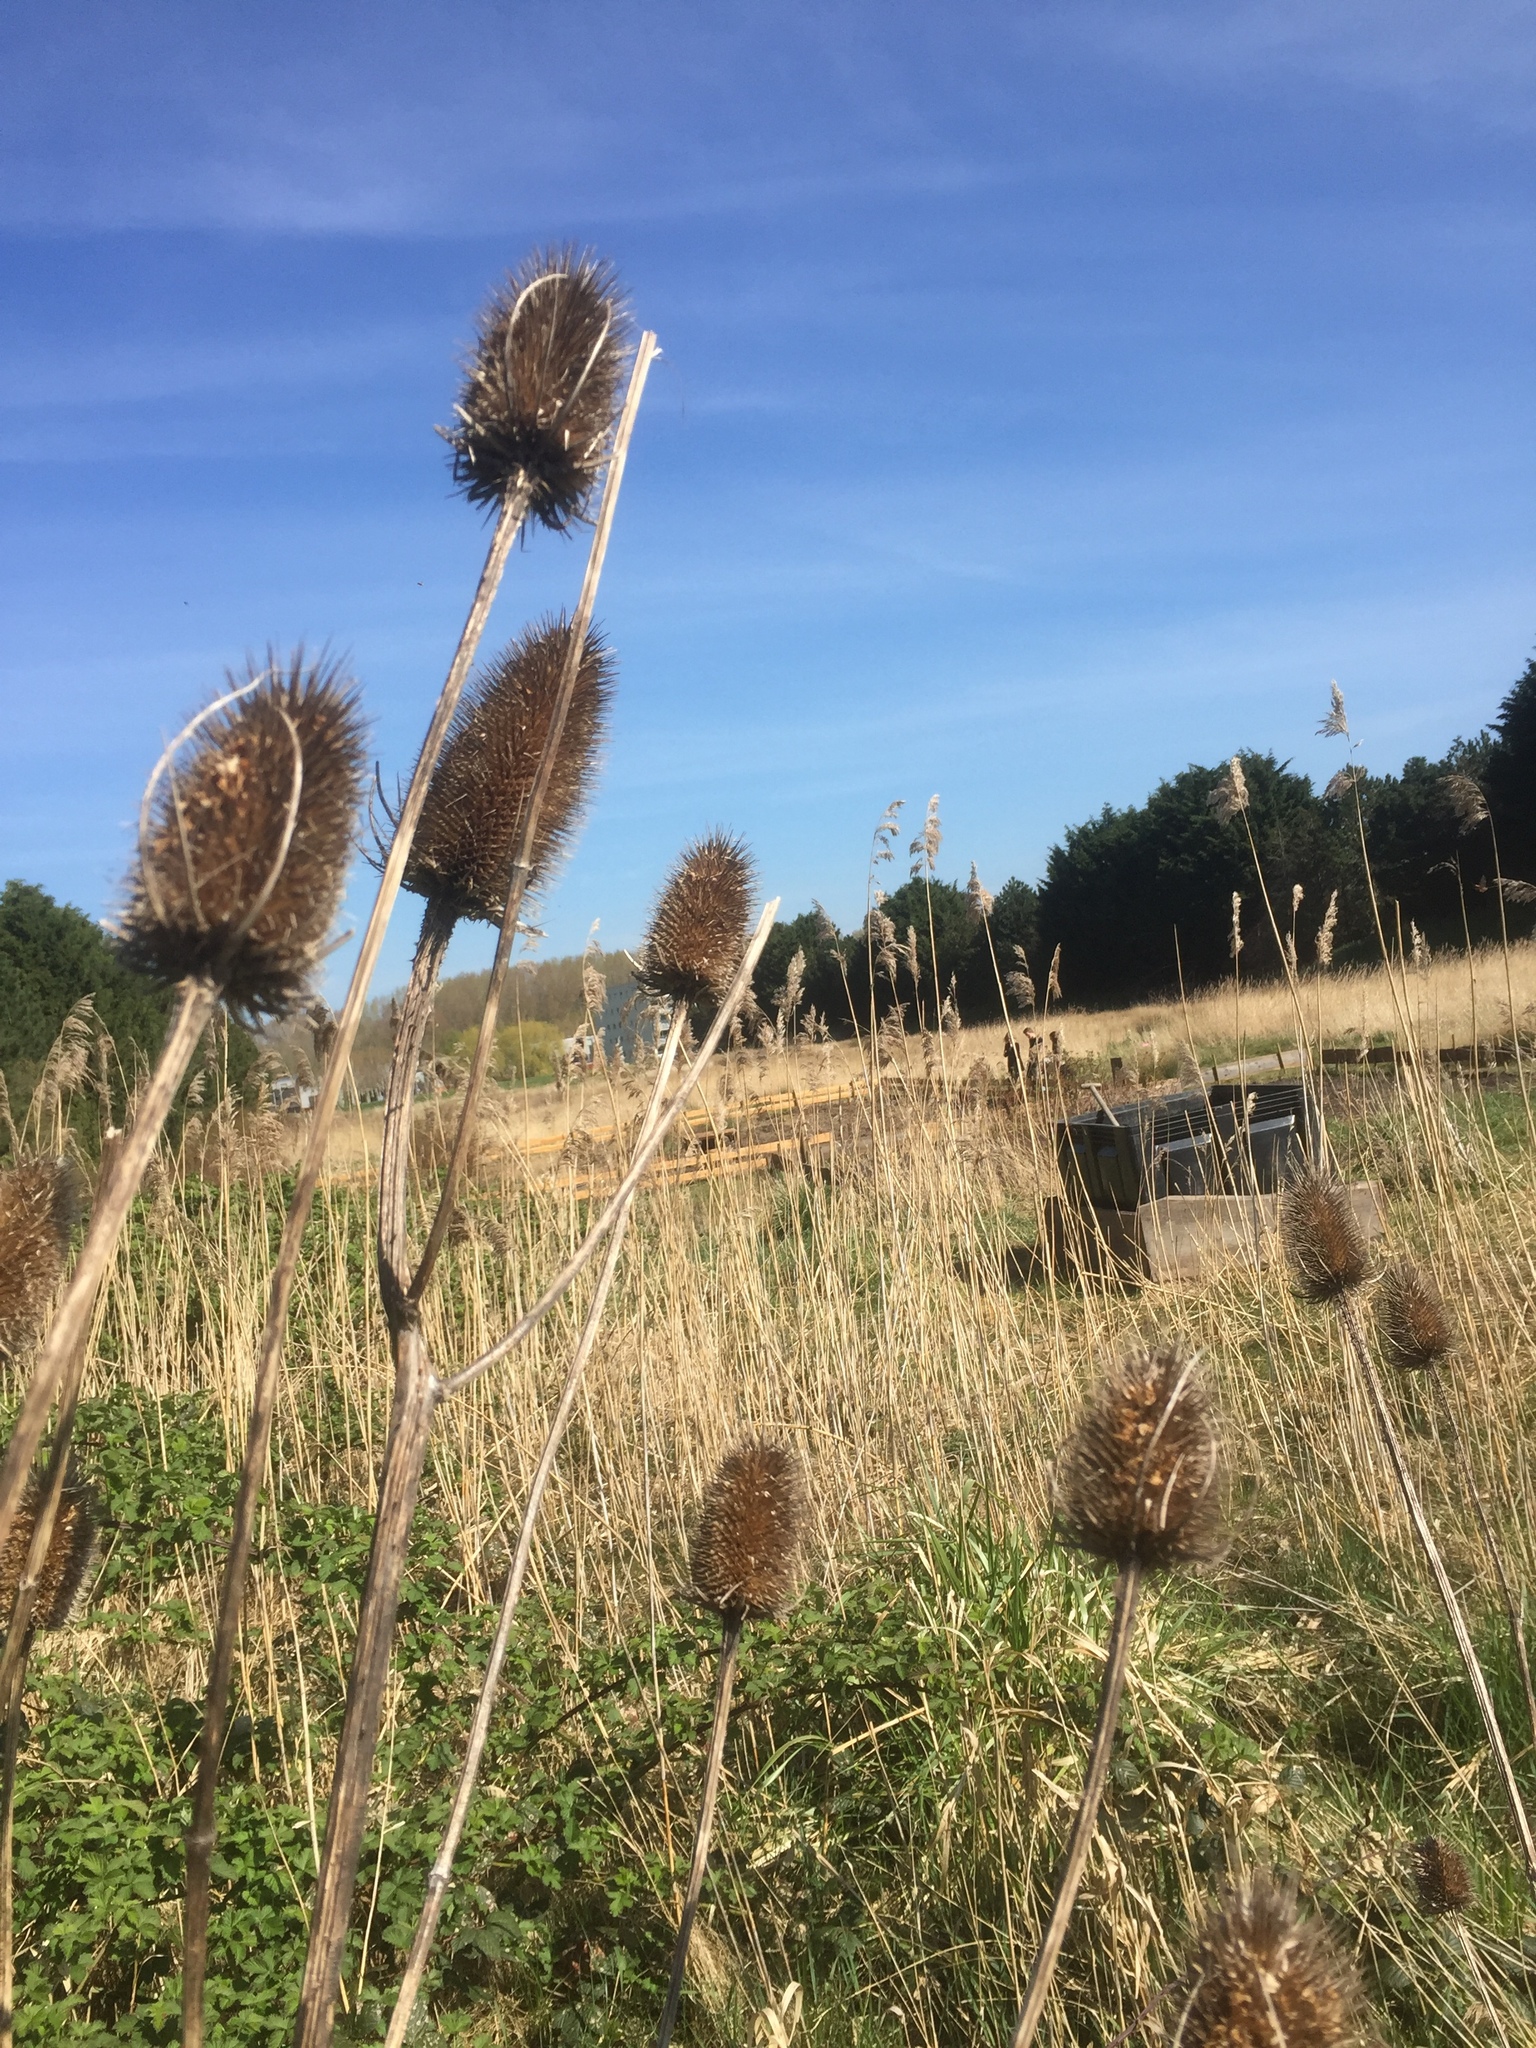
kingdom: Plantae
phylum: Tracheophyta
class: Magnoliopsida
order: Dipsacales
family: Caprifoliaceae
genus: Dipsacus
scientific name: Dipsacus fullonum
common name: Teasel
